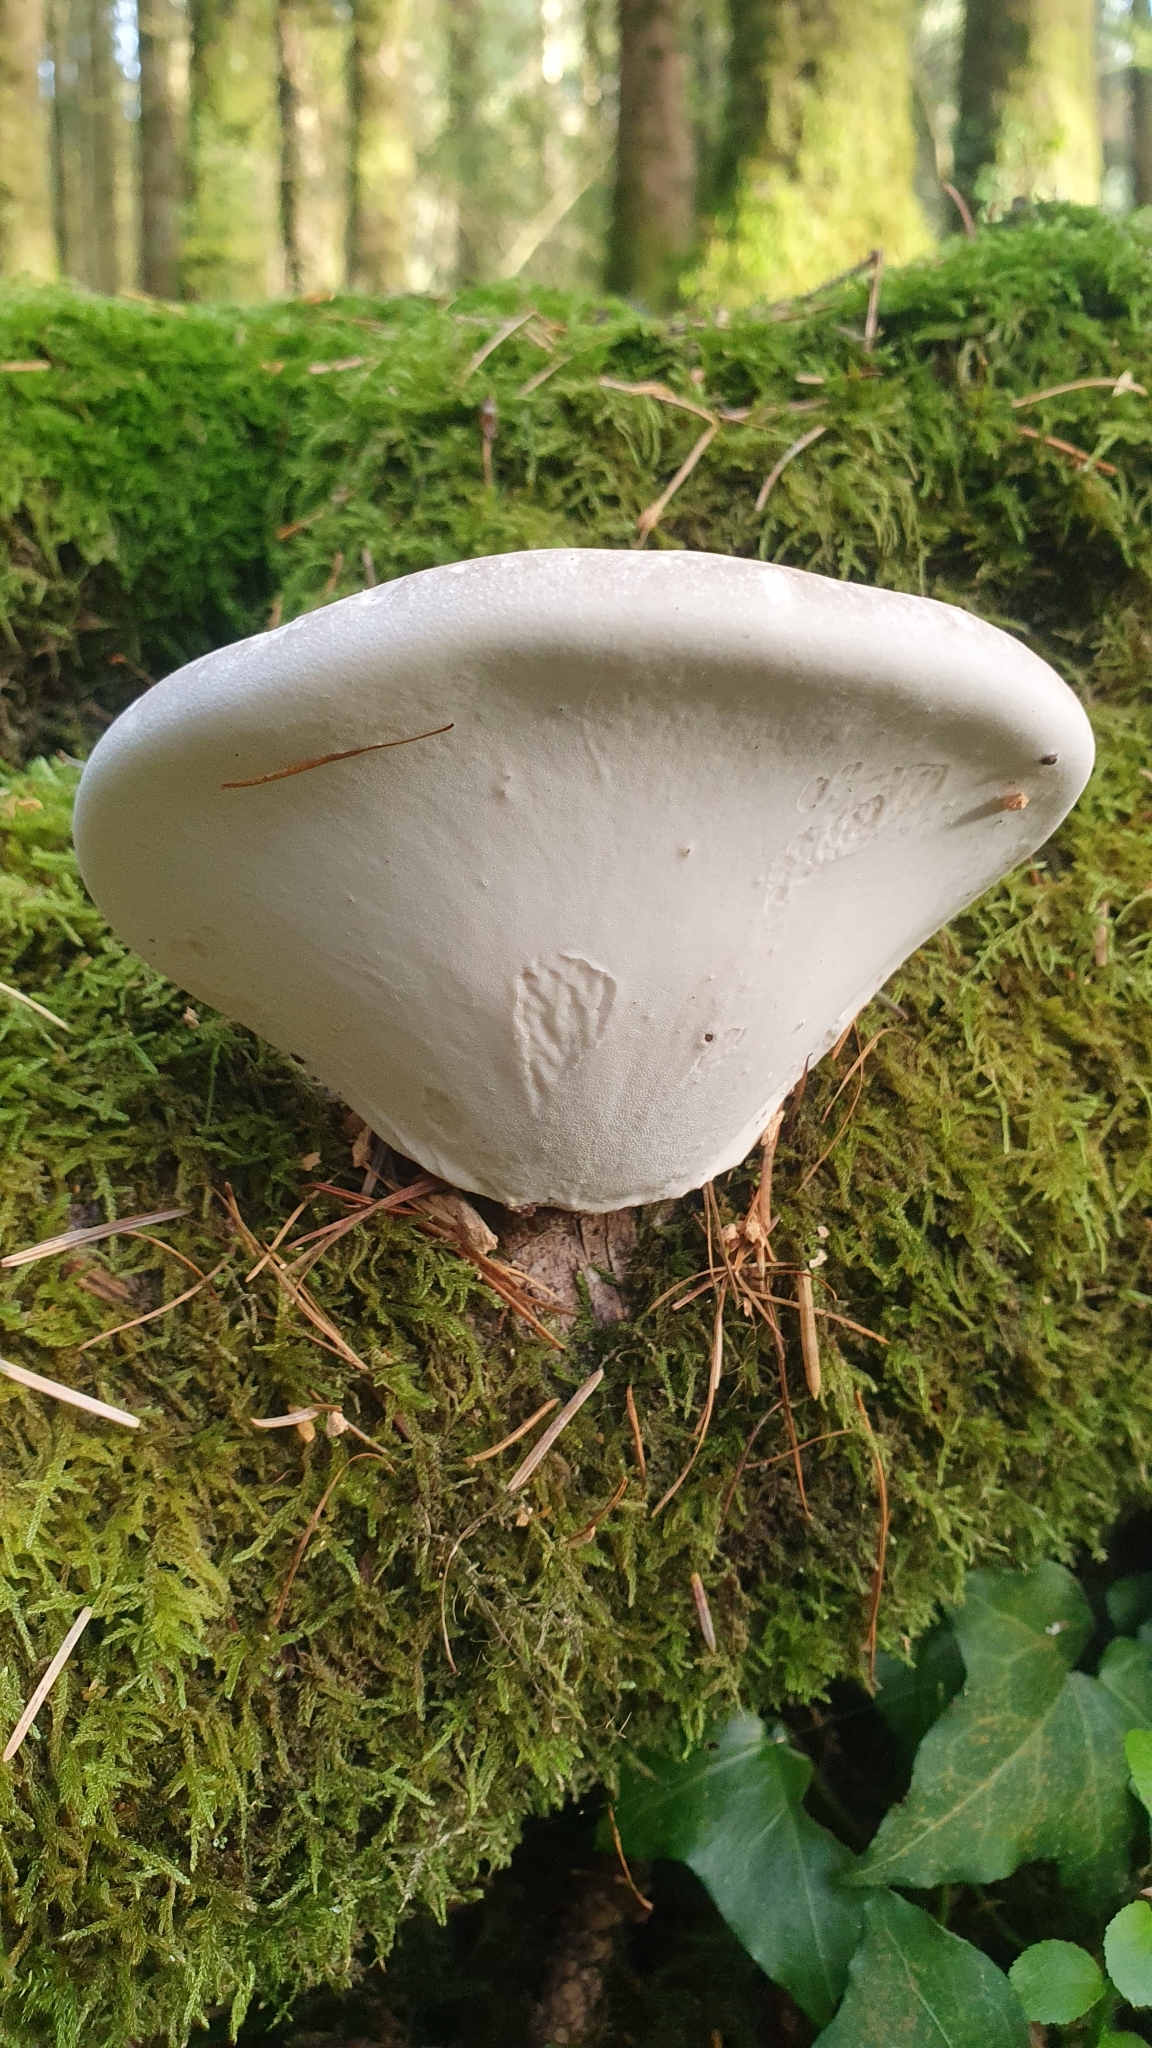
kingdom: Fungi
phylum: Basidiomycota
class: Agaricomycetes
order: Polyporales
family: Fomitopsidaceae
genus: Fomitopsis
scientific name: Fomitopsis betulina
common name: Birch polypore
